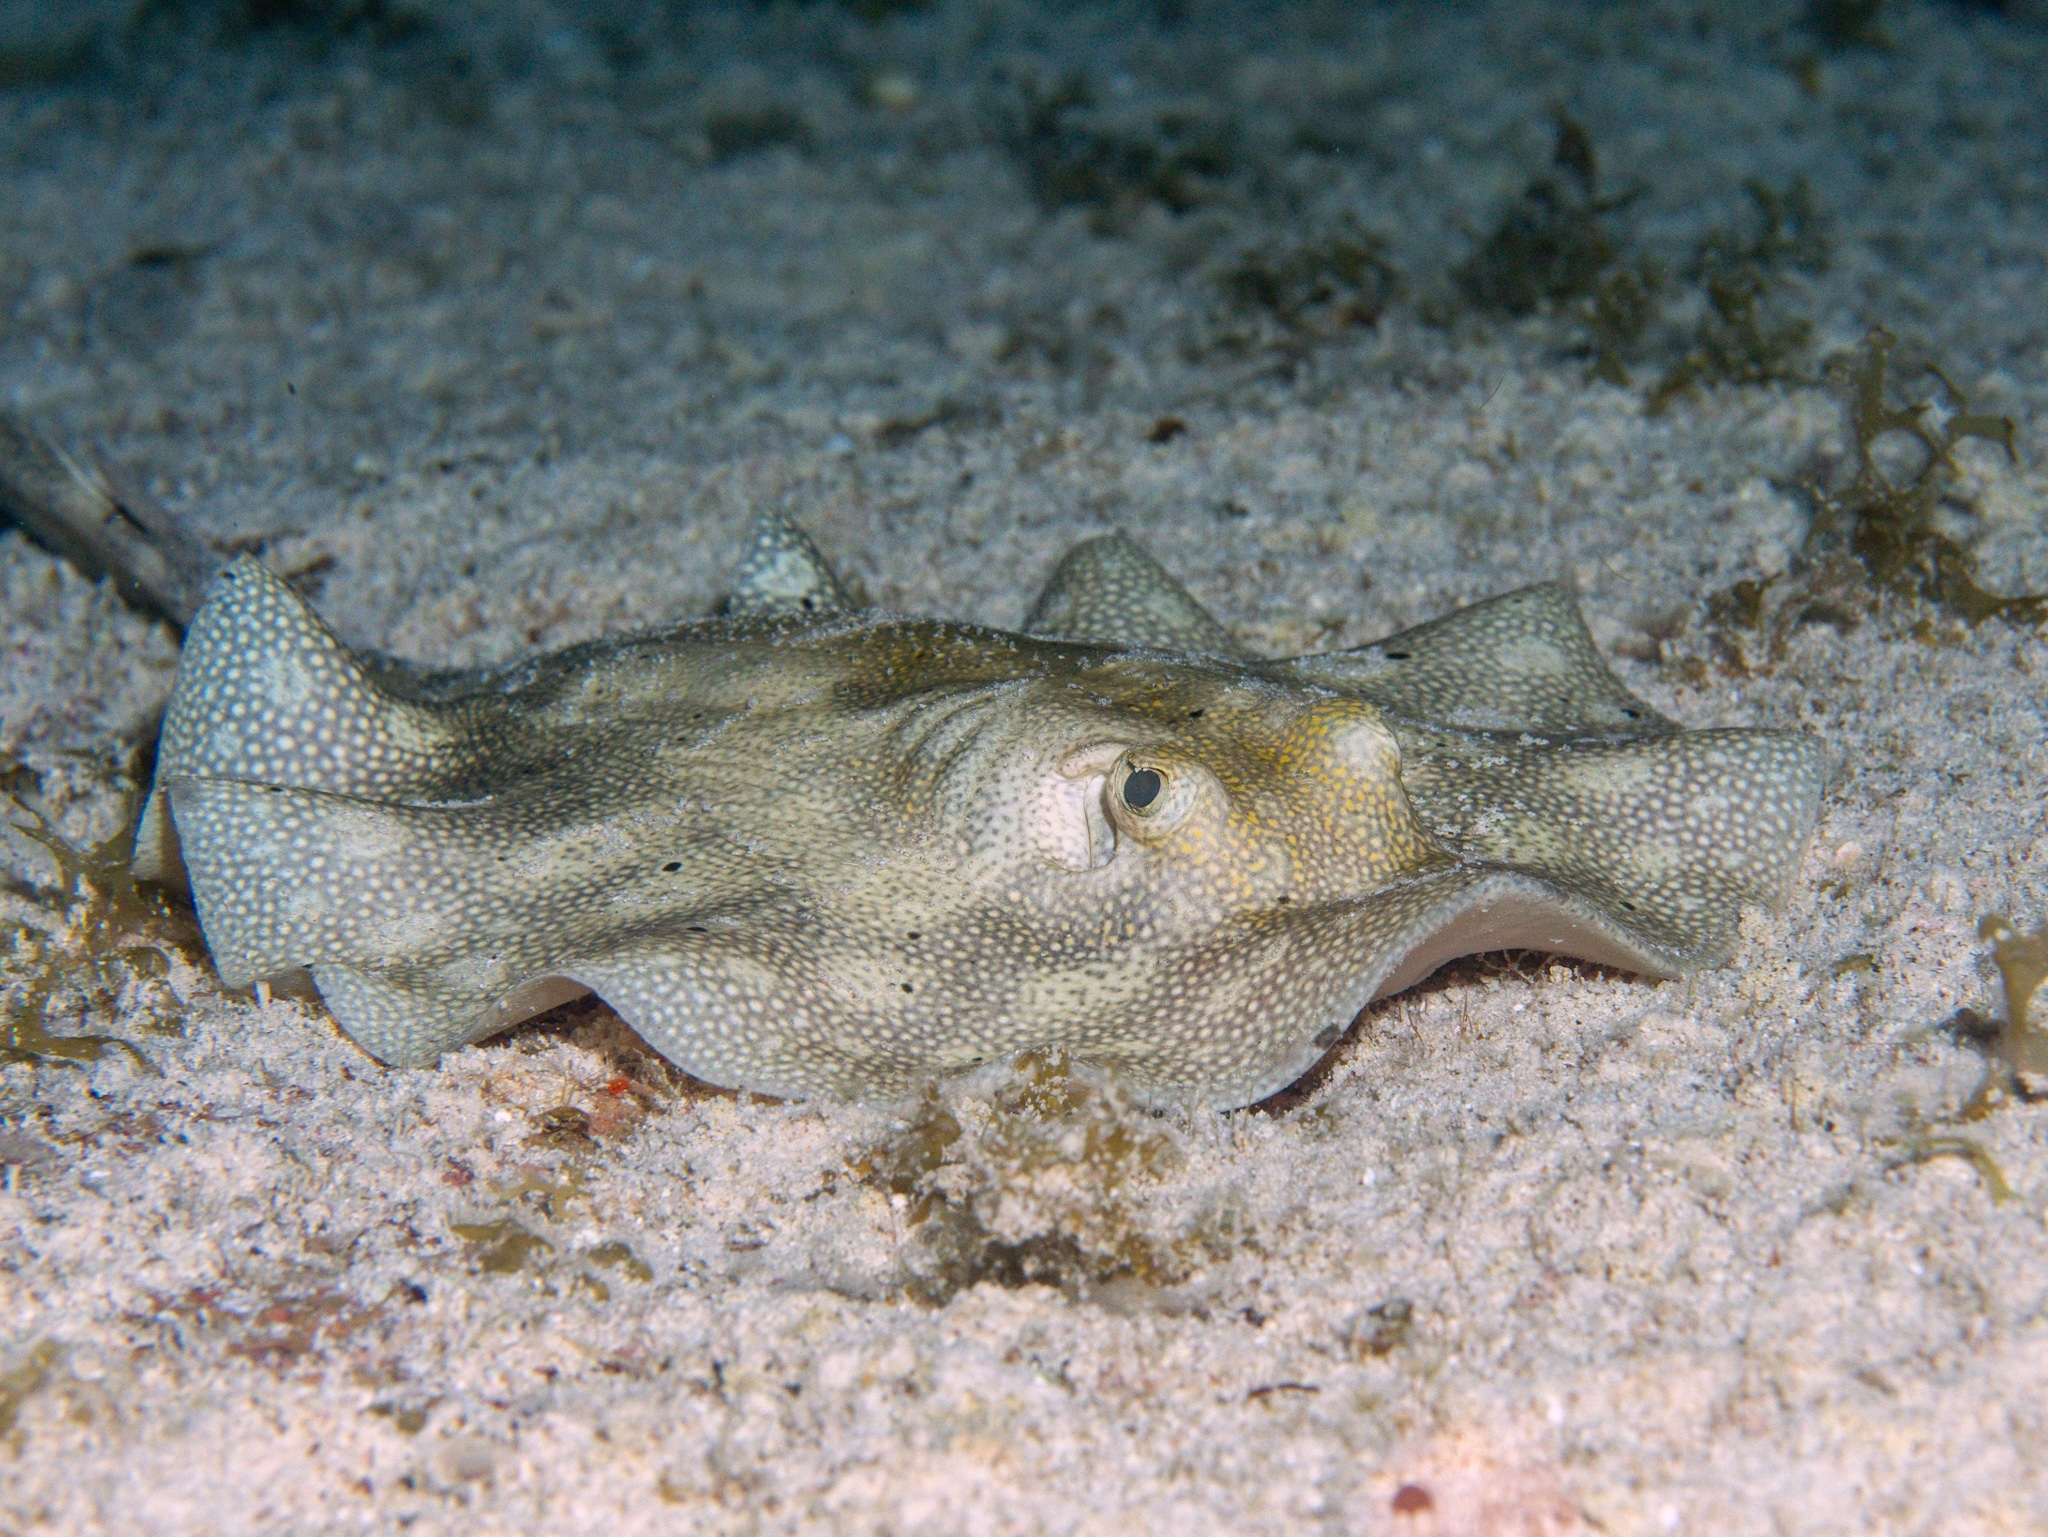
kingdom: Animalia
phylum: Chordata
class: Elasmobranchii
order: Myliobatiformes
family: Urotrygonidae
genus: Urobatis
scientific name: Urobatis jamaicensis
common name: Yellow stingray
